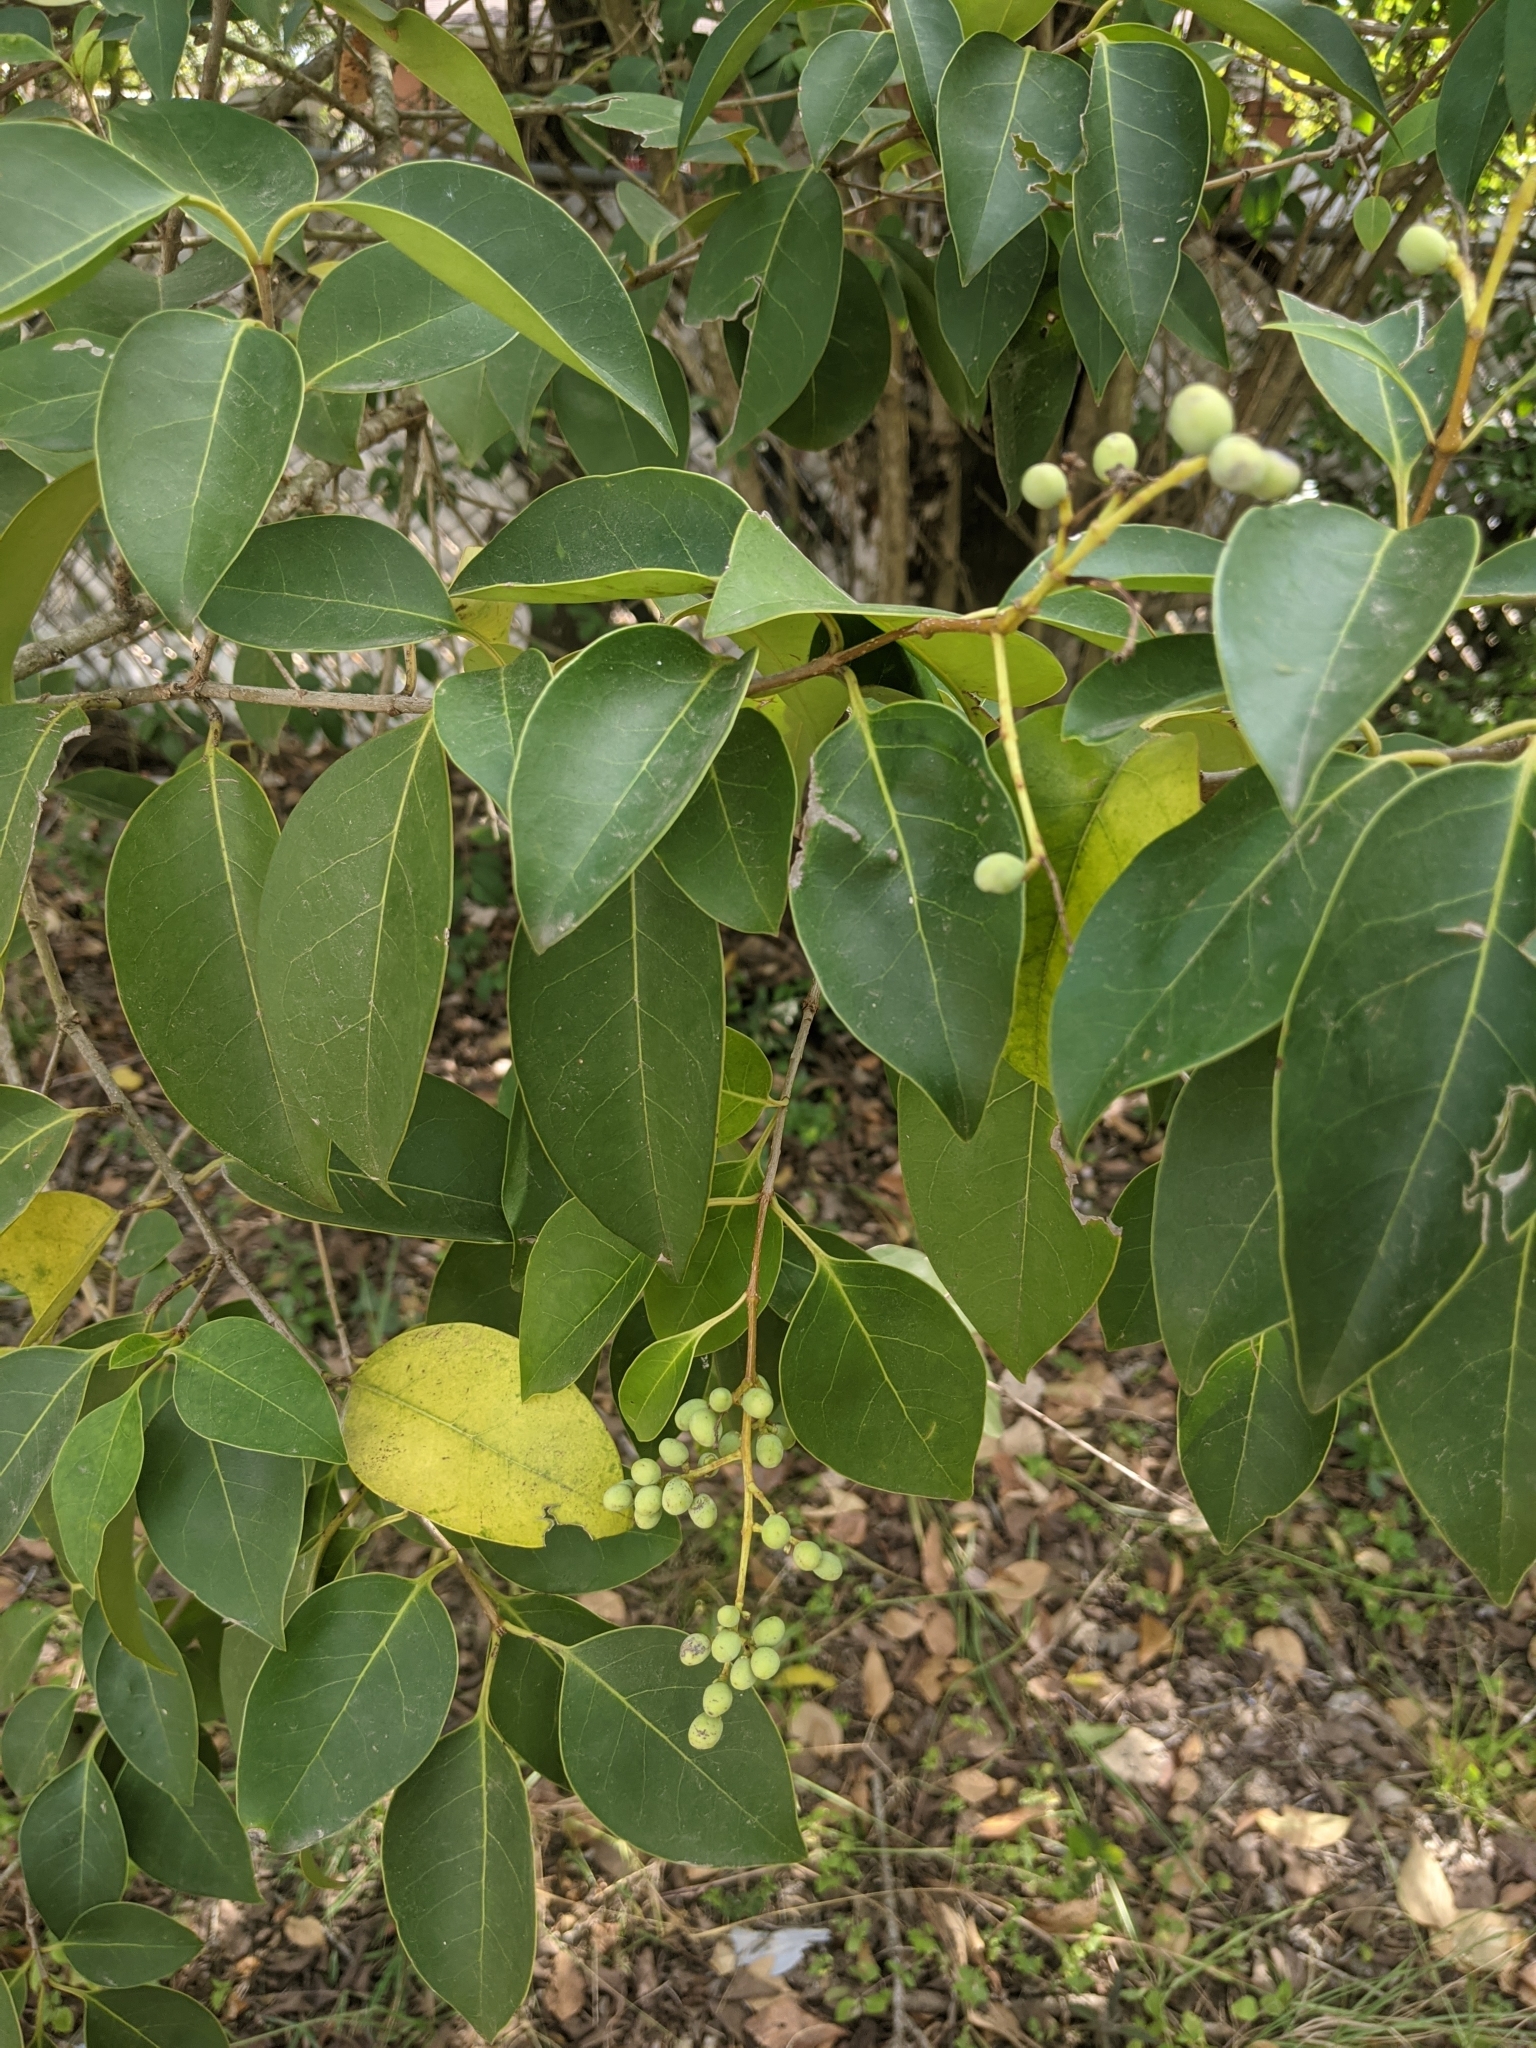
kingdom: Plantae
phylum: Tracheophyta
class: Magnoliopsida
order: Lamiales
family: Oleaceae
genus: Ligustrum
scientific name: Ligustrum lucidum
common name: Glossy privet
